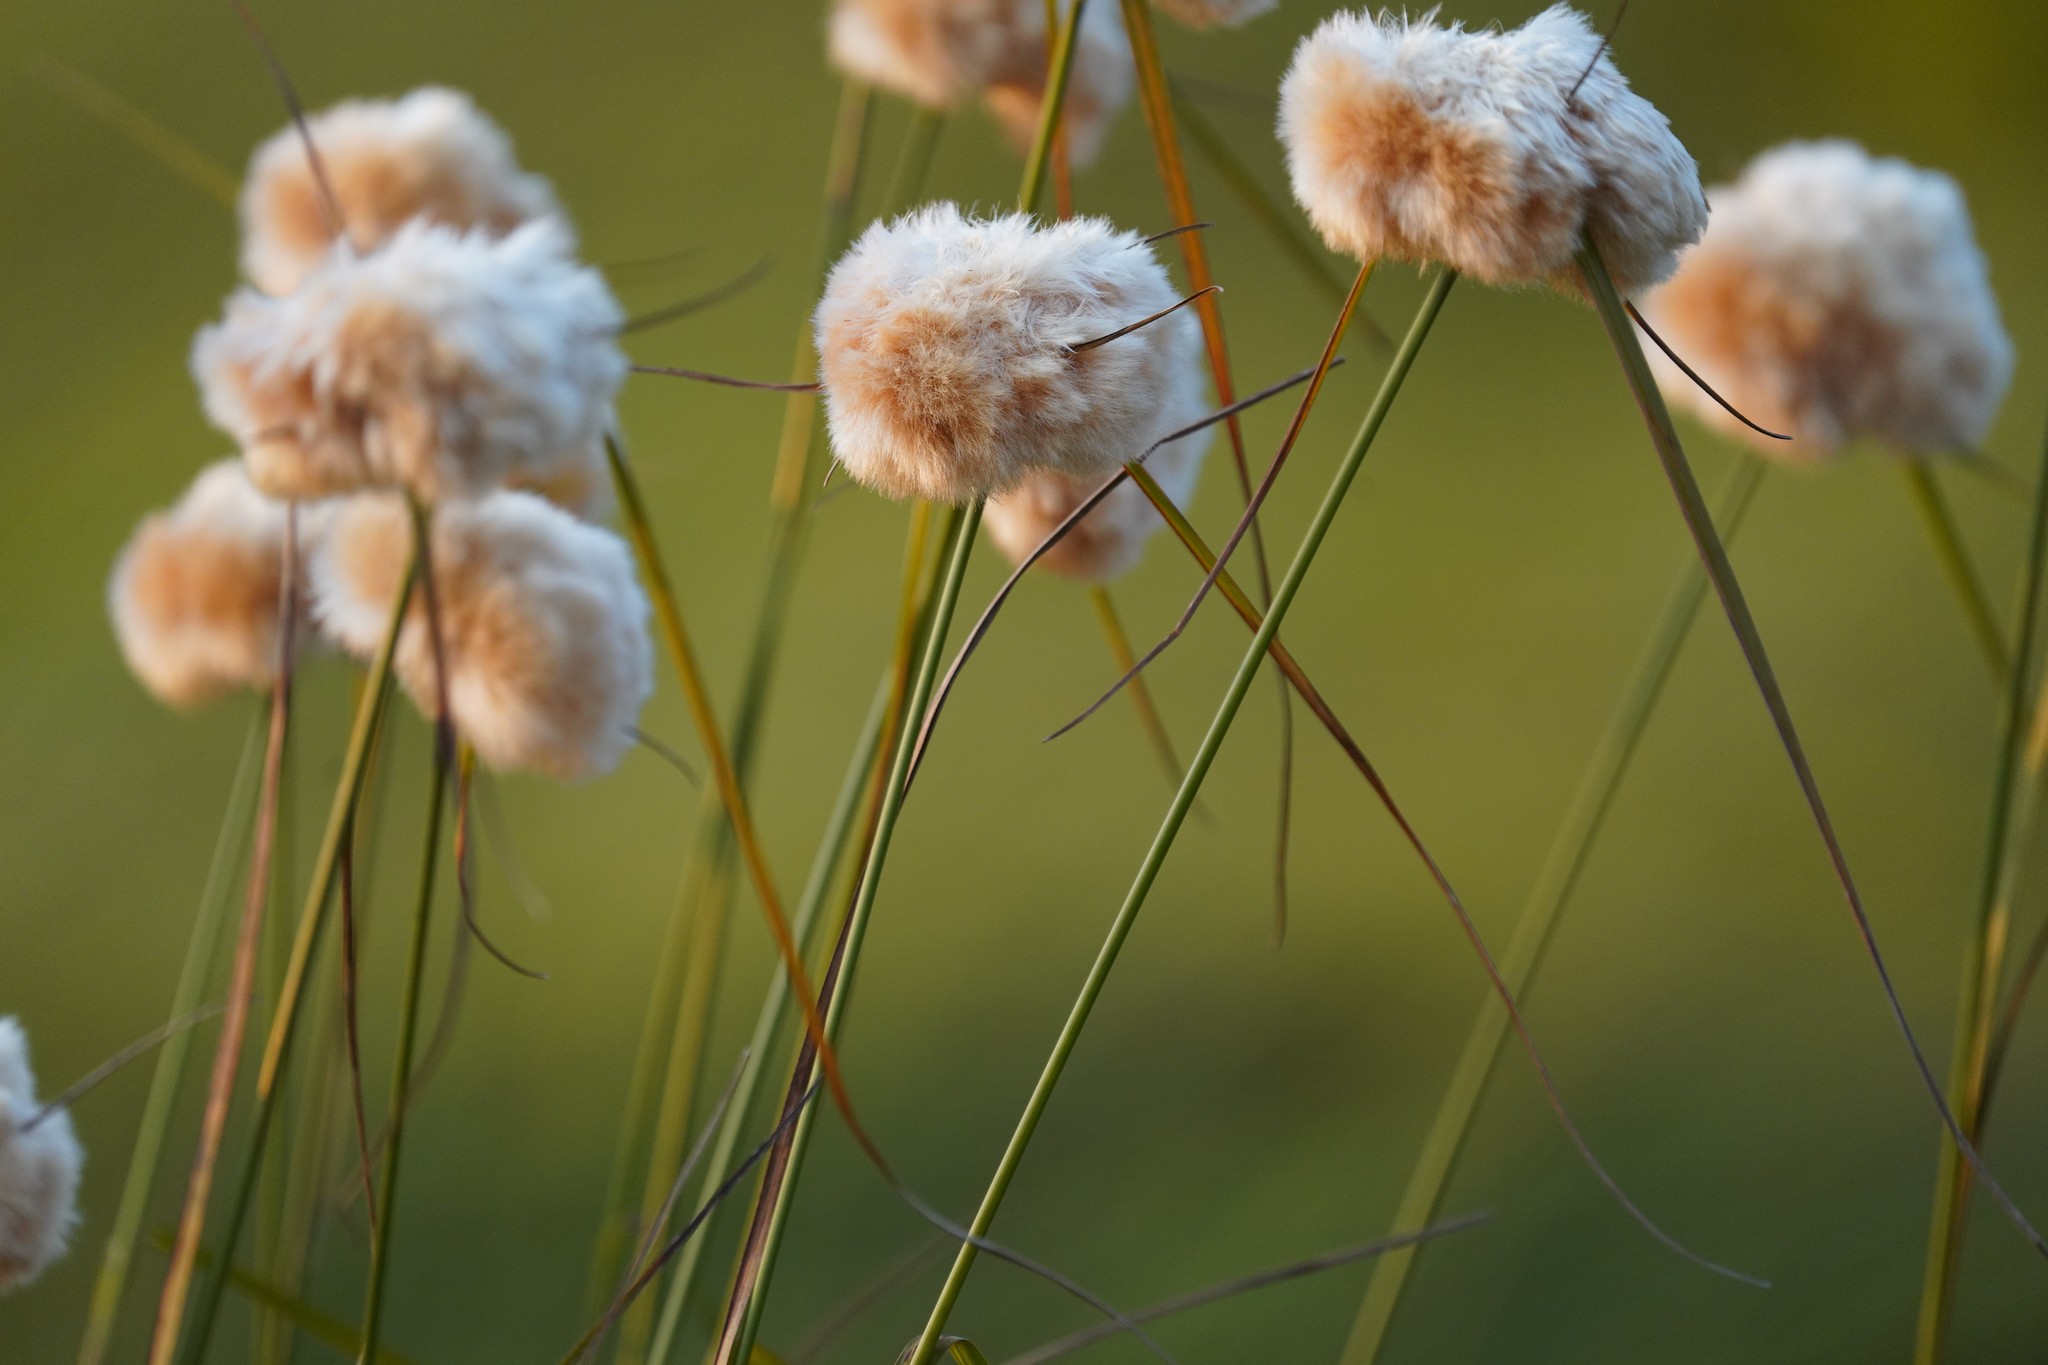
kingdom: Plantae
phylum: Tracheophyta
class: Liliopsida
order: Poales
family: Cyperaceae
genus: Eriophorum
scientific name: Eriophorum virginicum
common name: Tawny cottongrass
